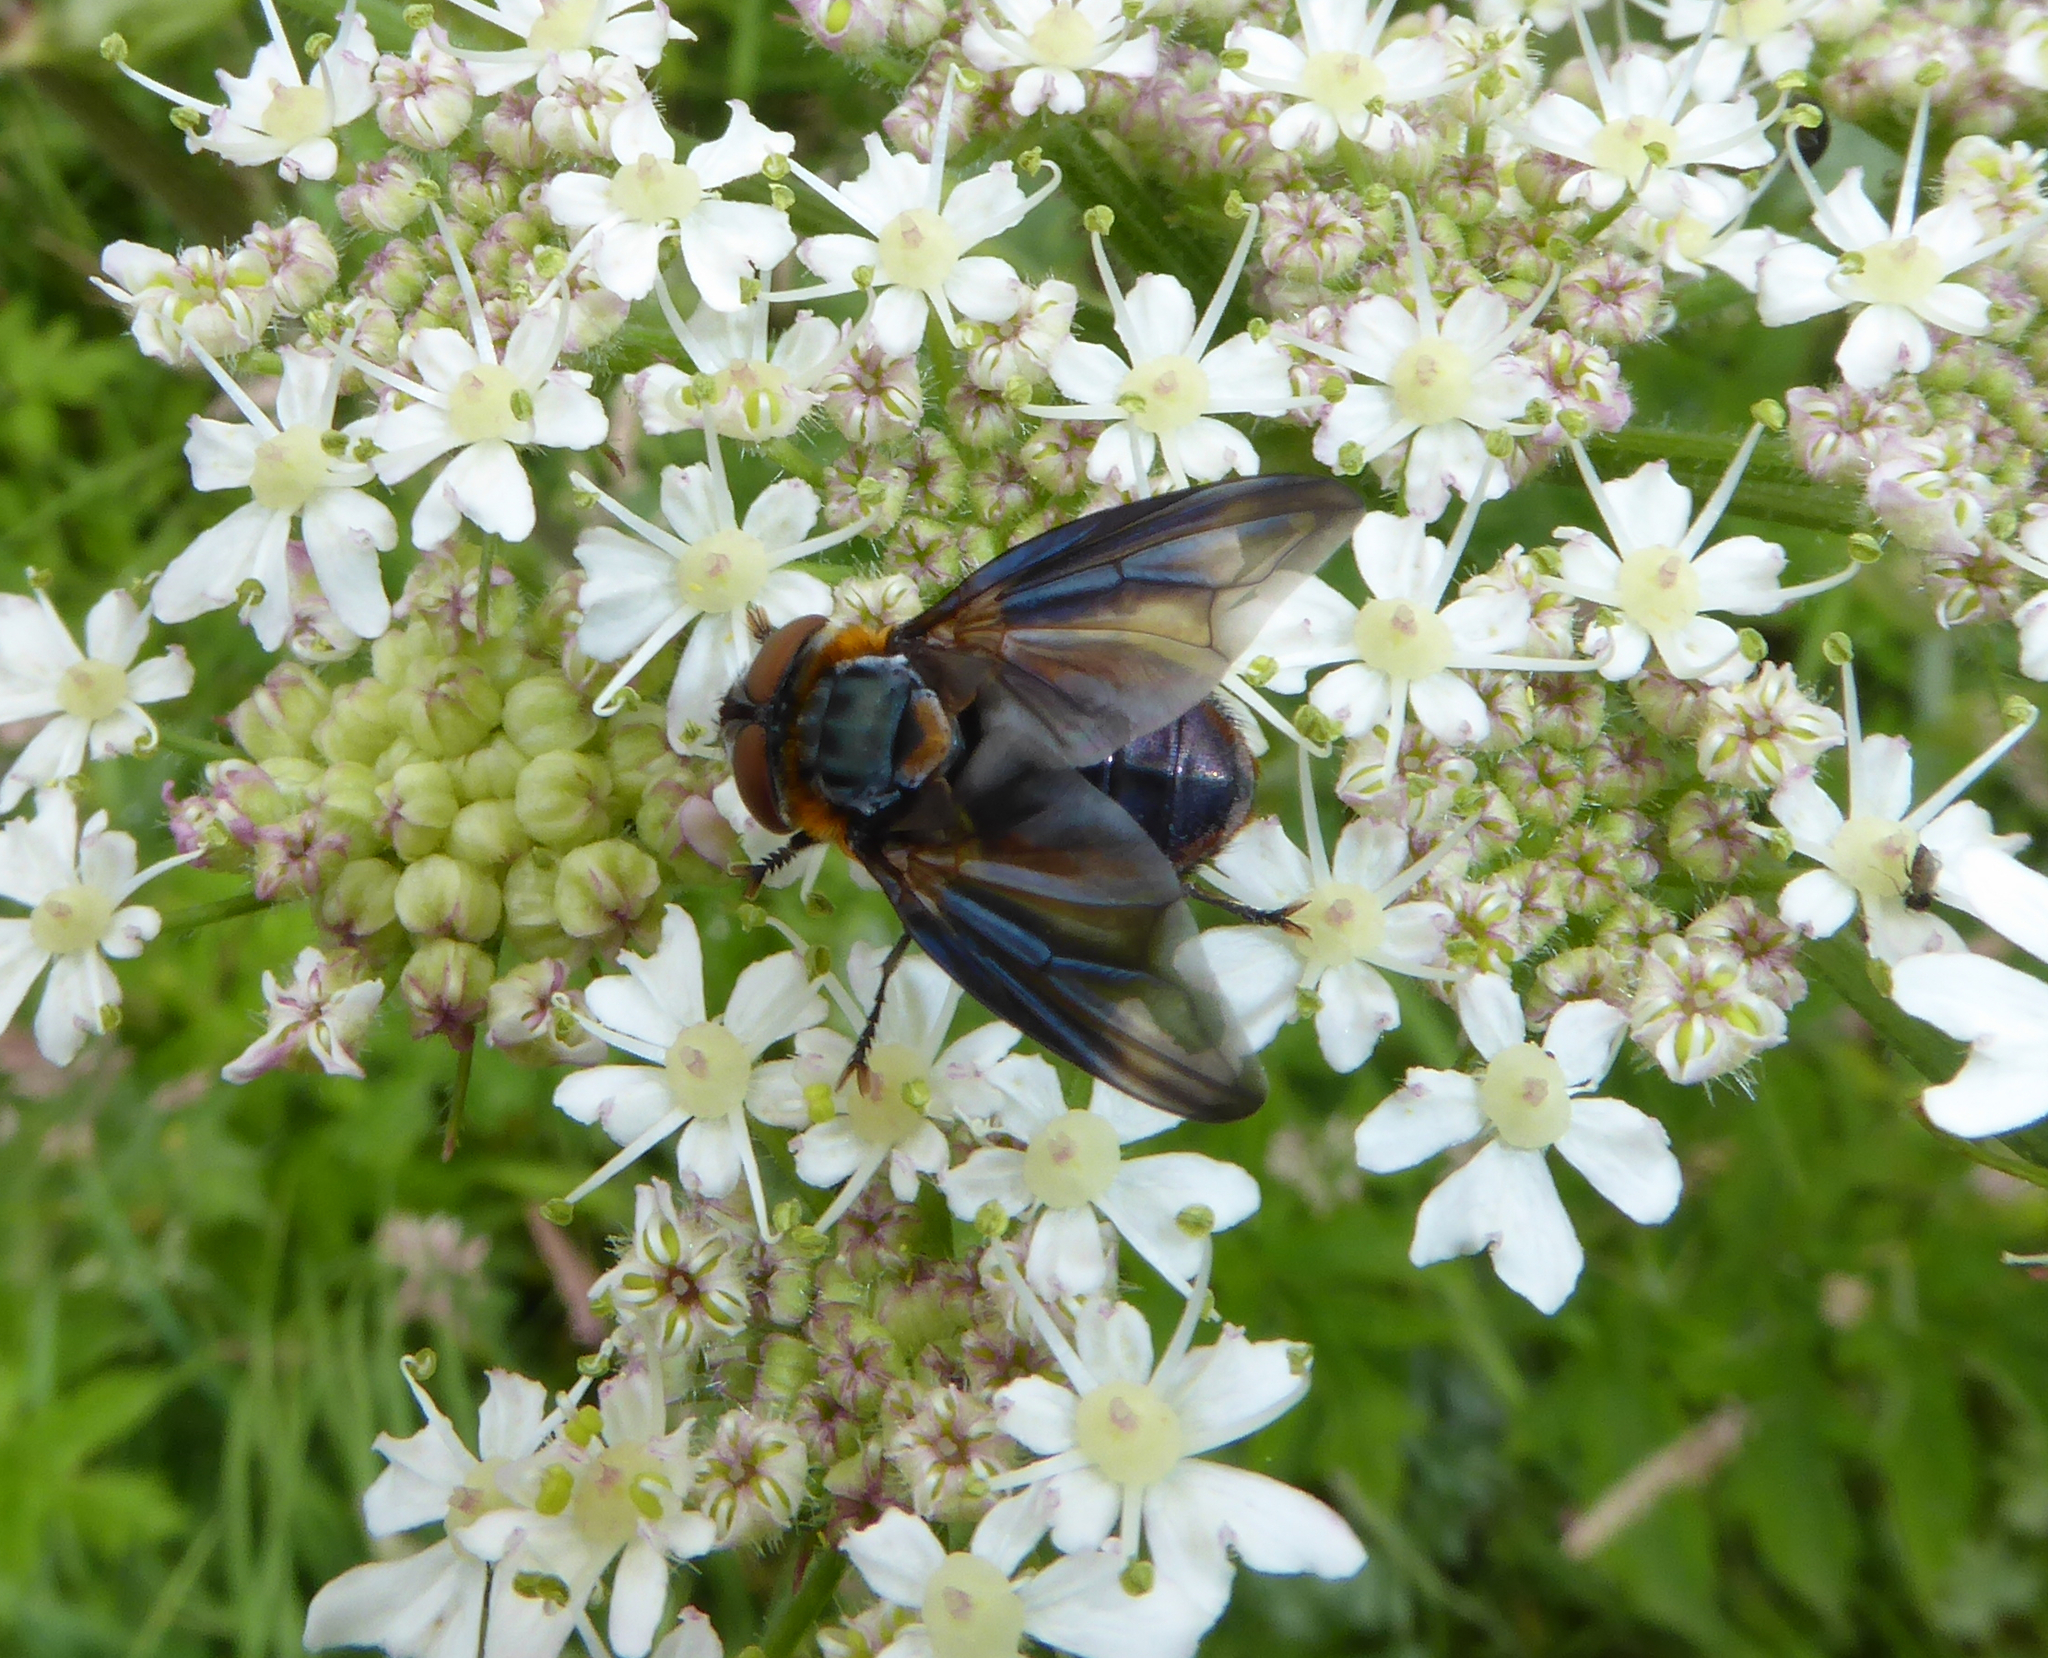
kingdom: Animalia
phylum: Arthropoda
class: Insecta
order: Diptera
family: Tachinidae
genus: Phasia
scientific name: Phasia hemiptera
